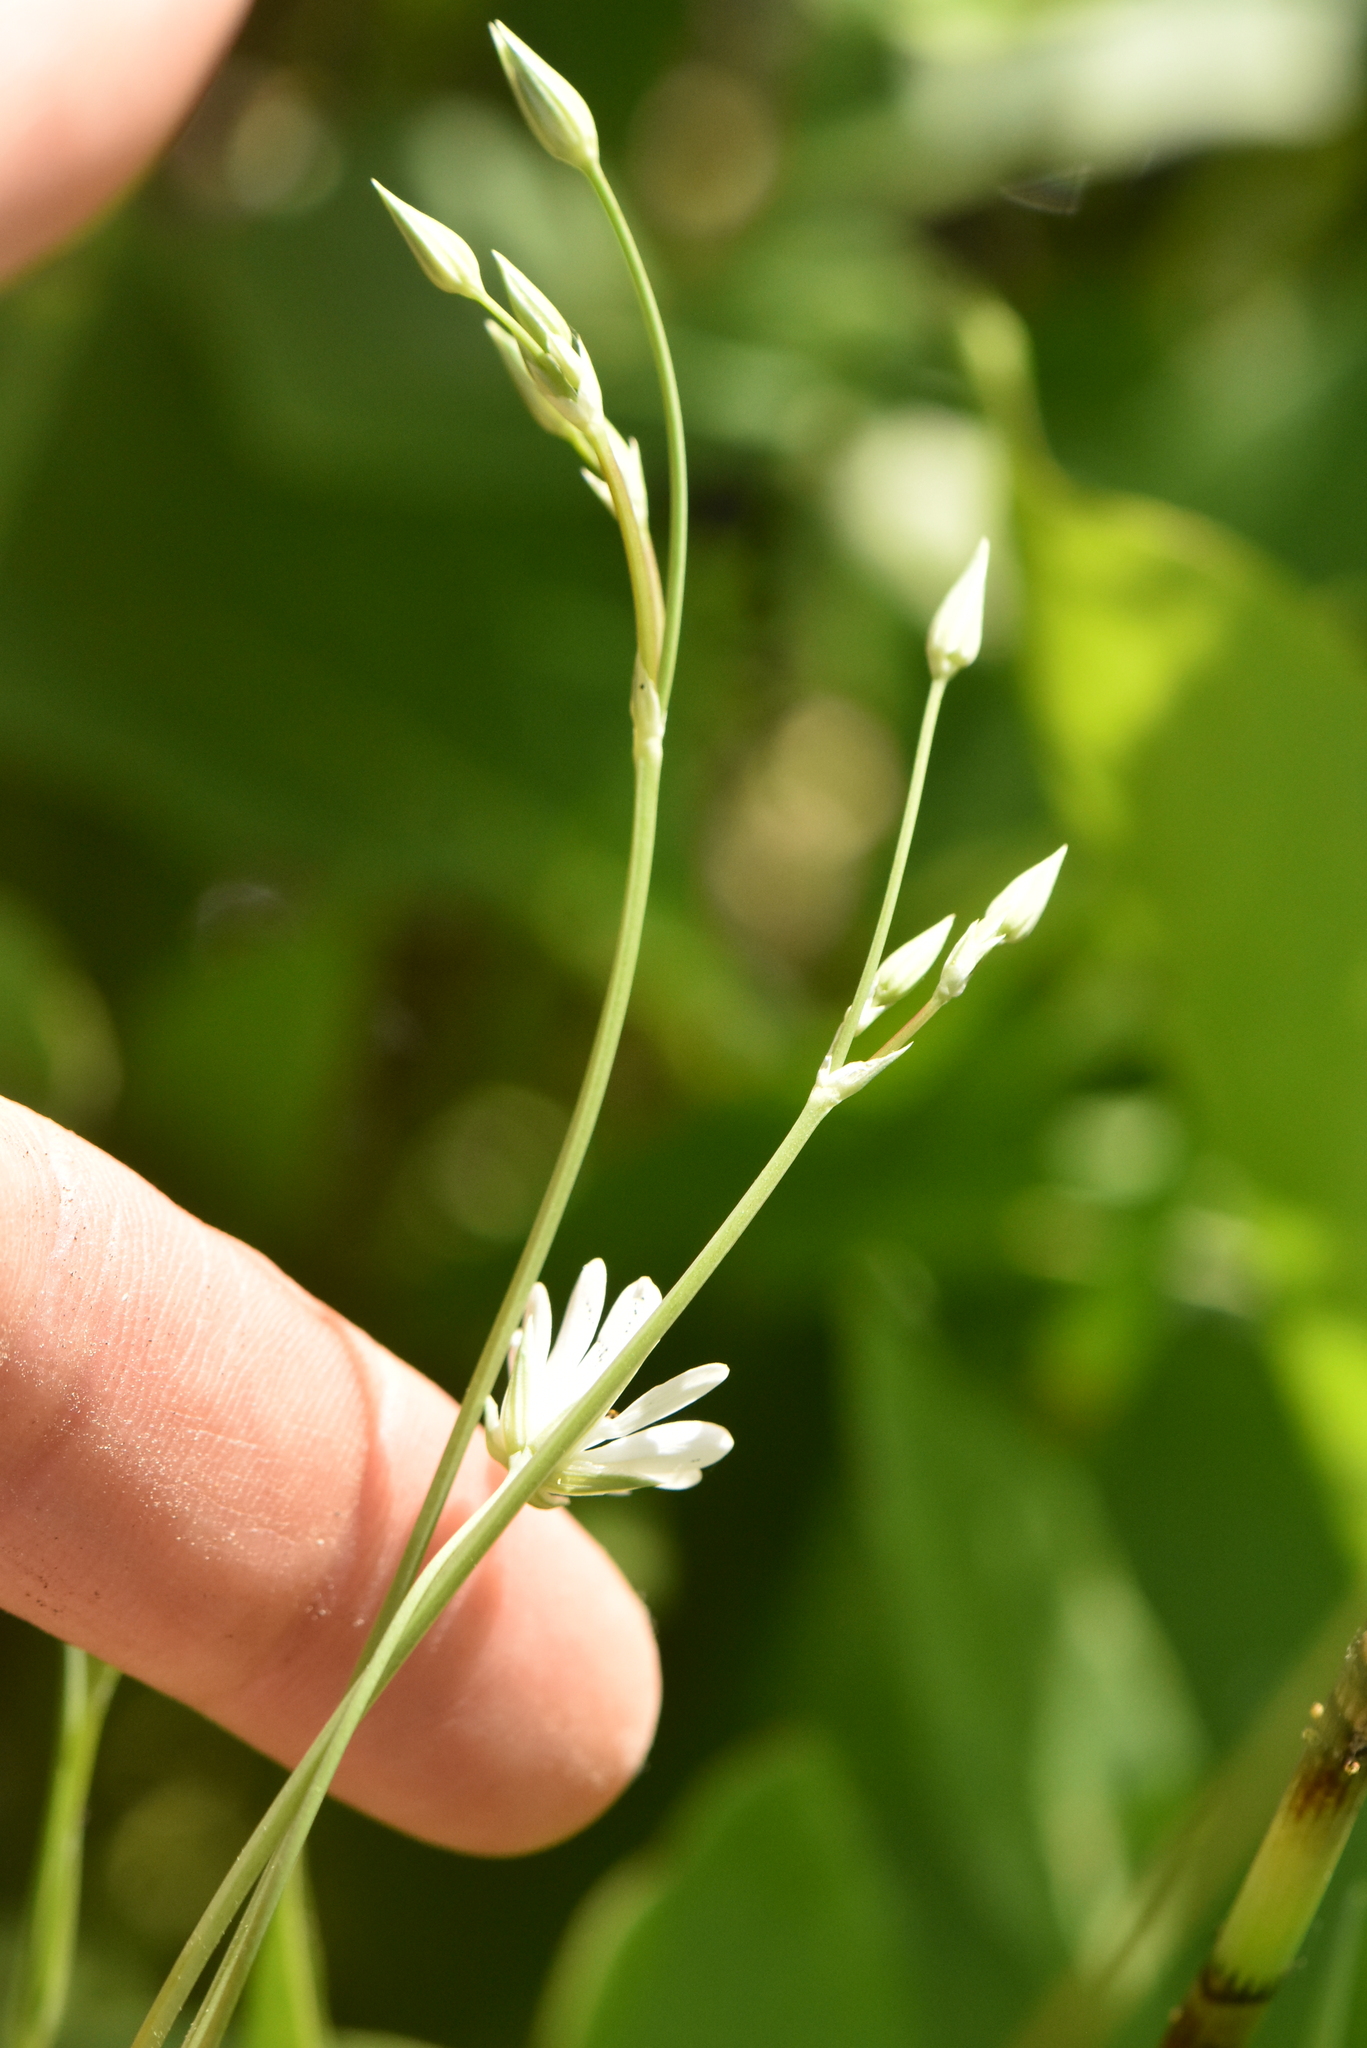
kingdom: Plantae
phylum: Tracheophyta
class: Magnoliopsida
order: Caryophyllales
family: Caryophyllaceae
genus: Stellaria
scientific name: Stellaria palustris
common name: Marsh stitchwort
